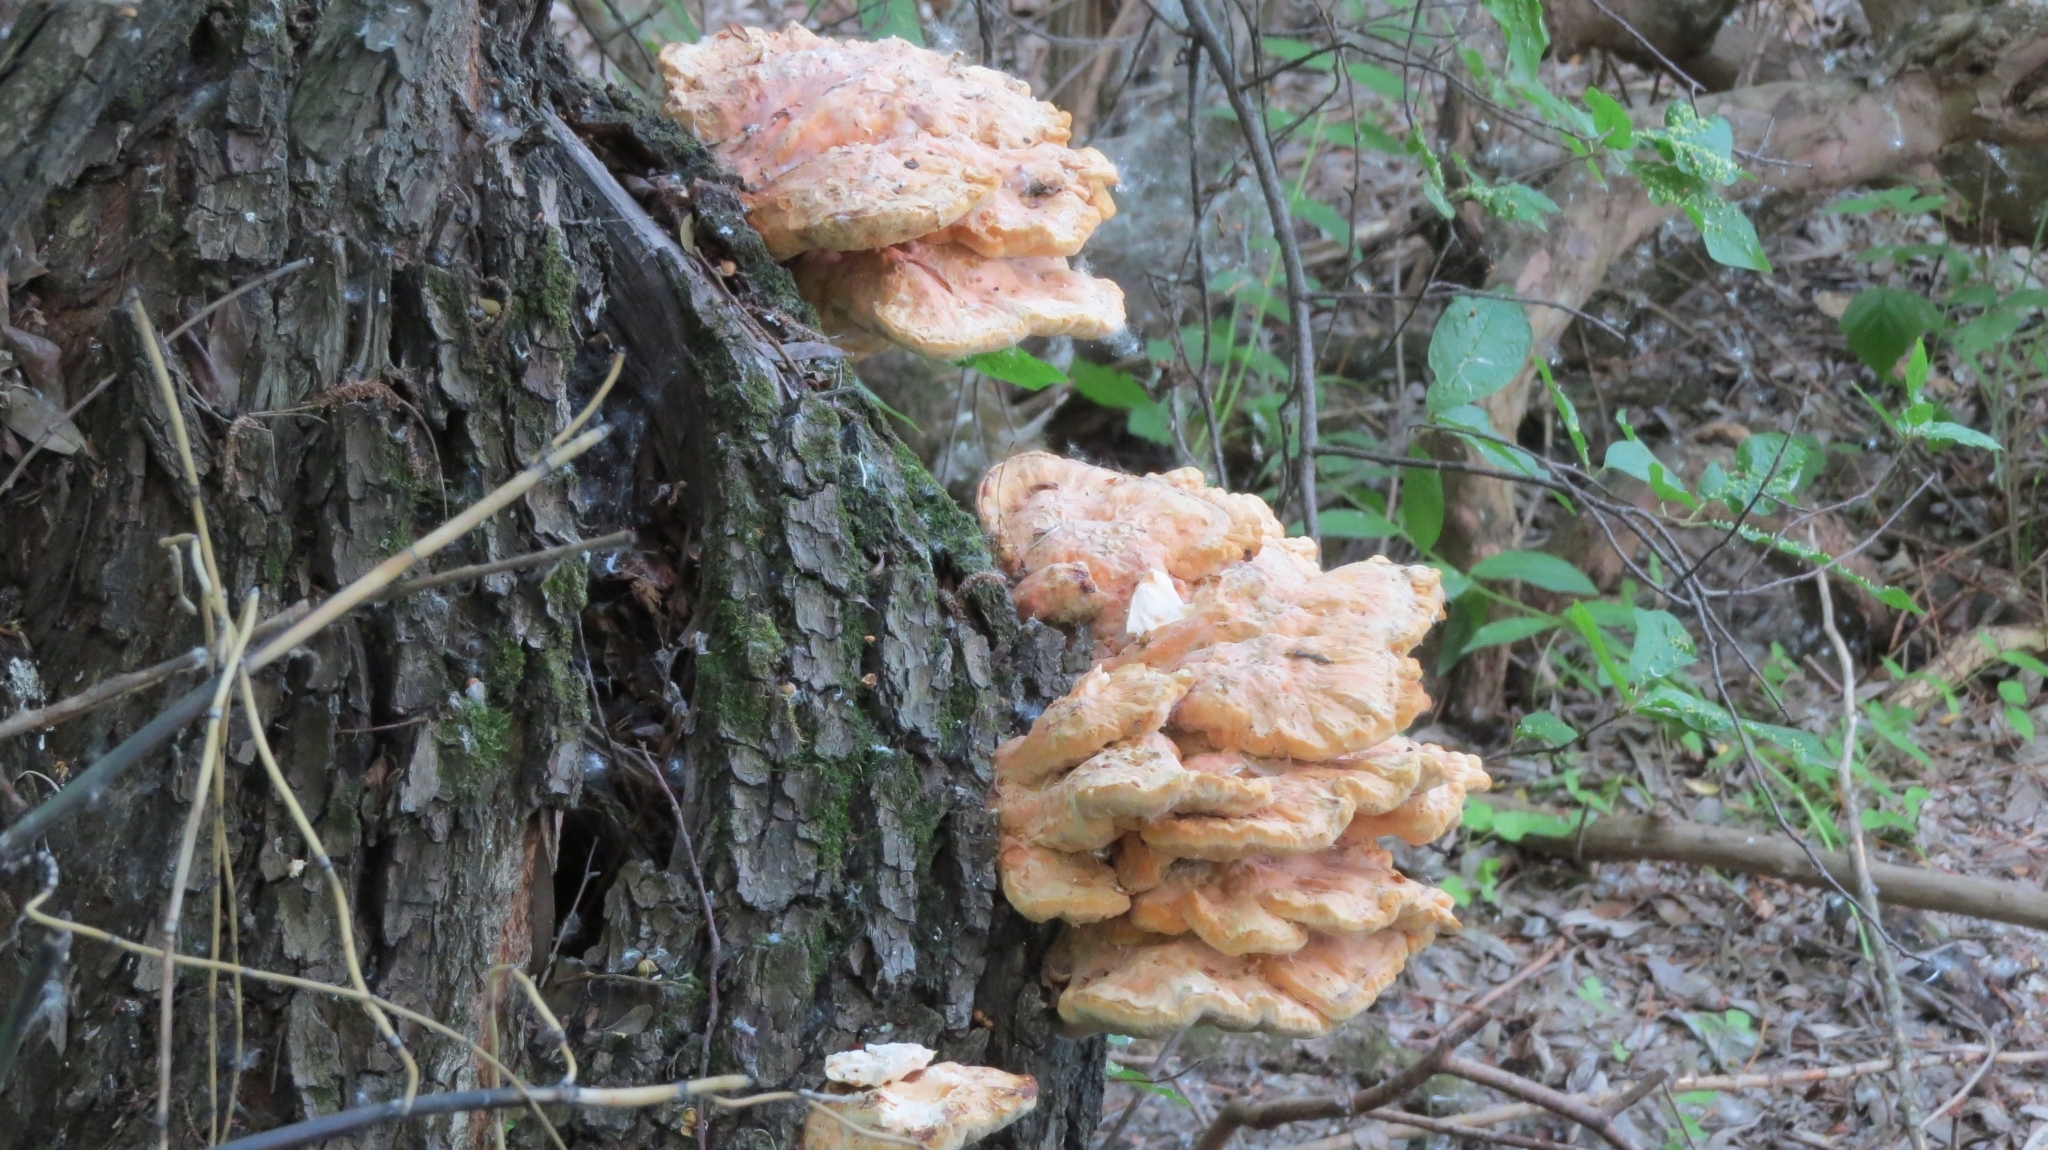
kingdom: Fungi
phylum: Basidiomycota
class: Agaricomycetes
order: Polyporales
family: Laetiporaceae
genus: Laetiporus
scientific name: Laetiporus sulphureus
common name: Chicken of the woods
